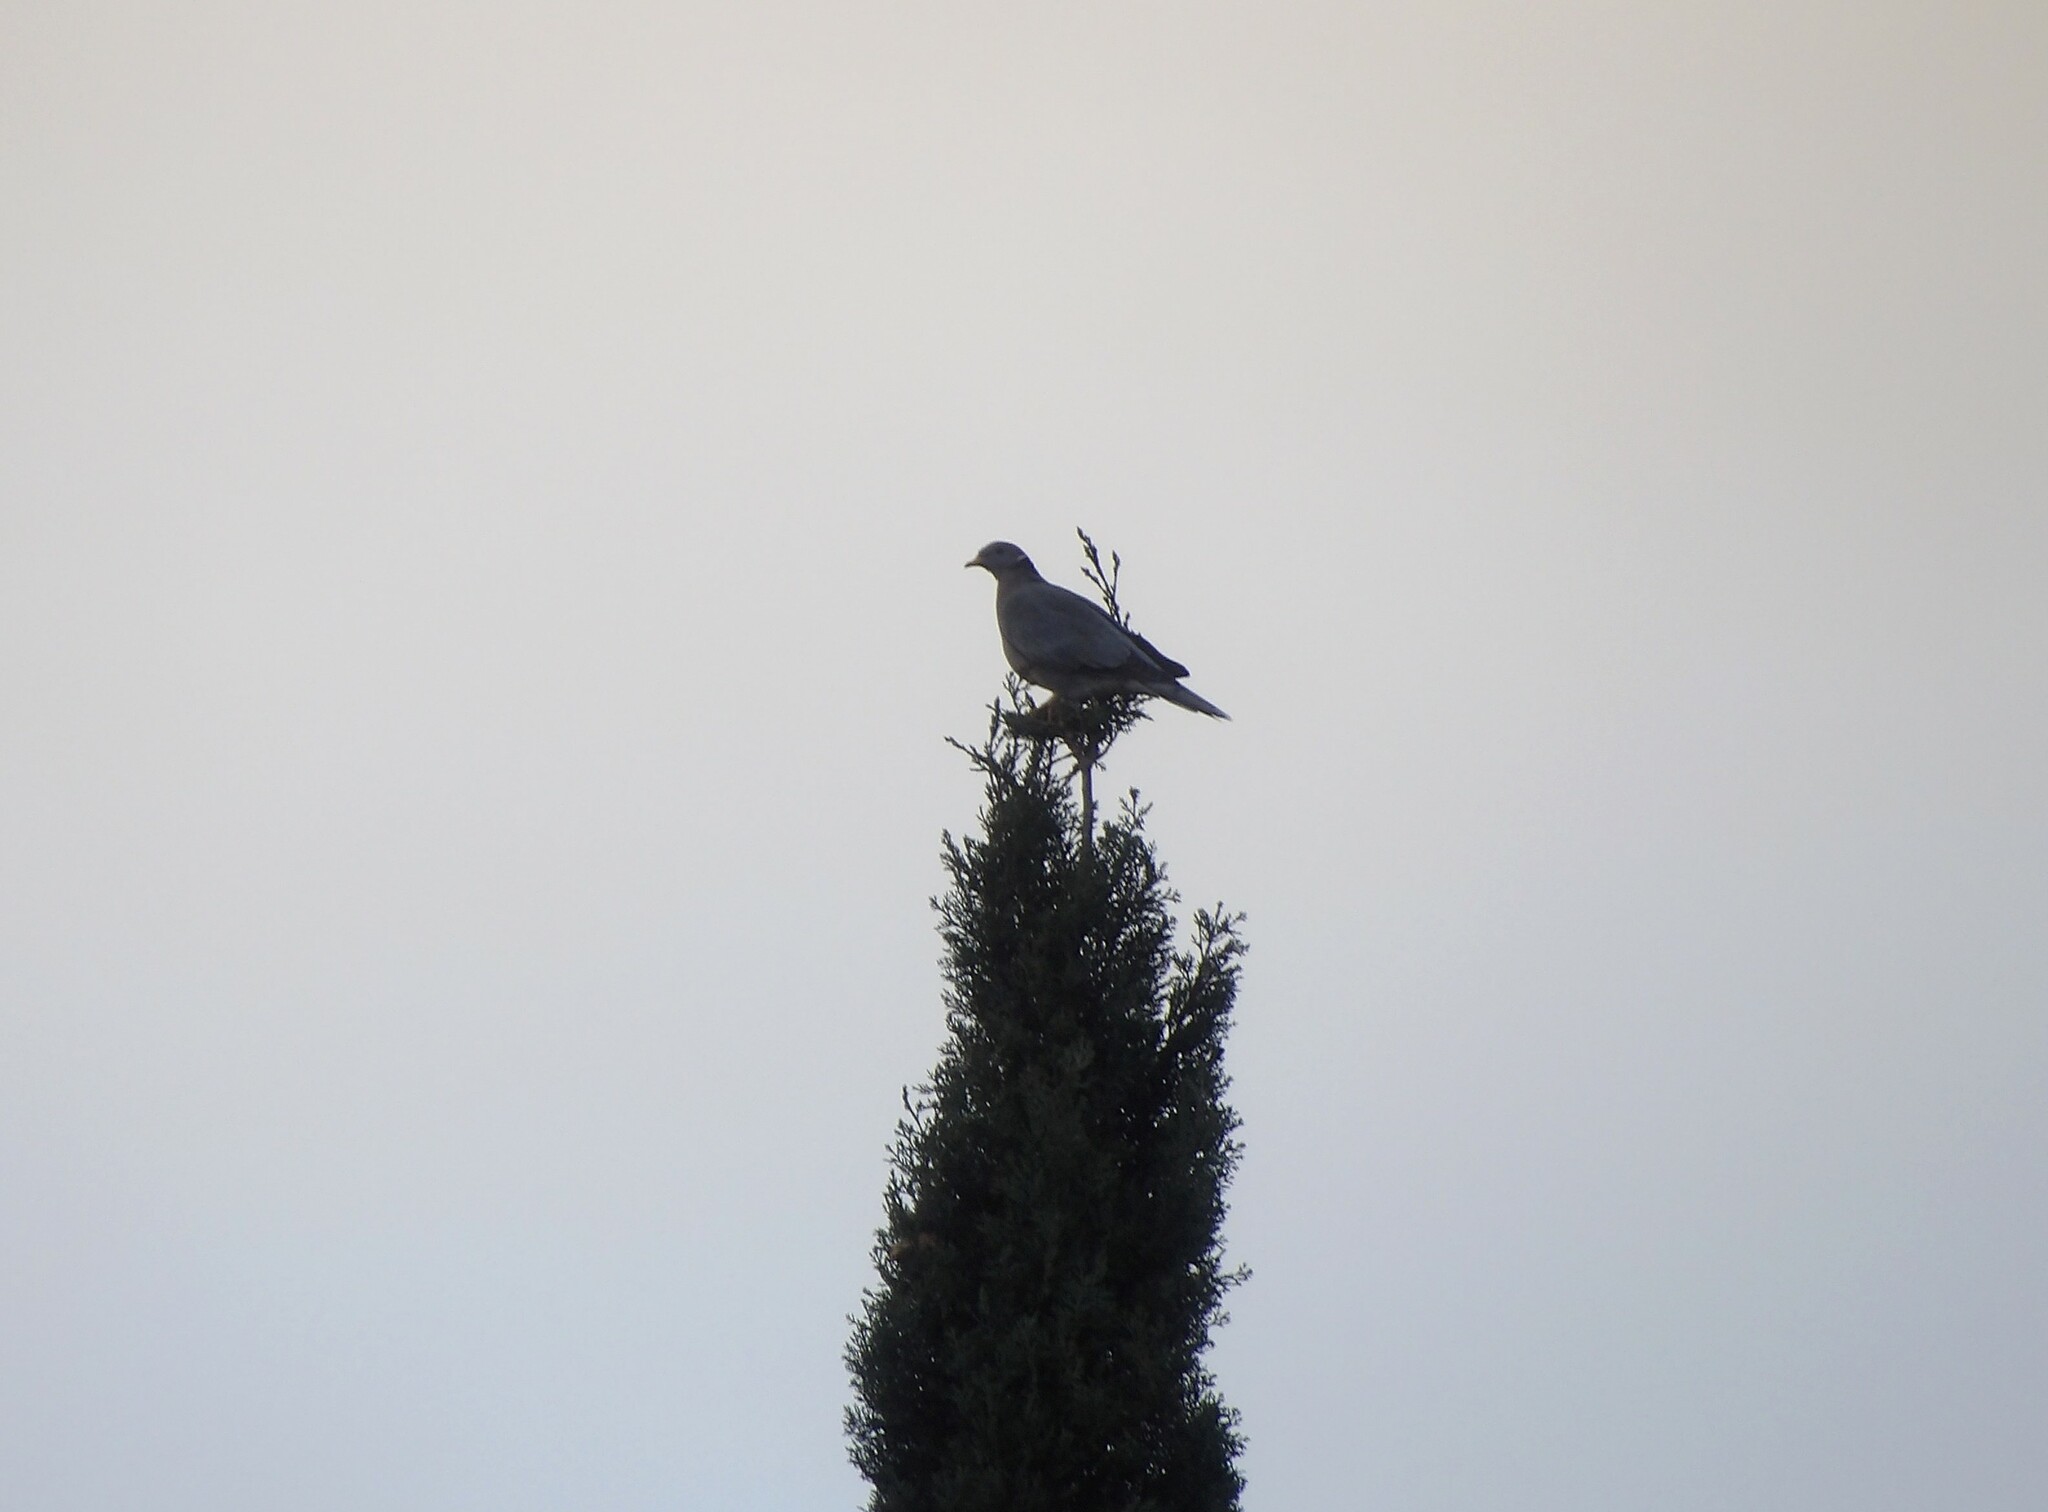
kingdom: Animalia
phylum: Chordata
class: Aves
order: Columbiformes
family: Columbidae
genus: Patagioenas
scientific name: Patagioenas fasciata
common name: Band-tailed pigeon
